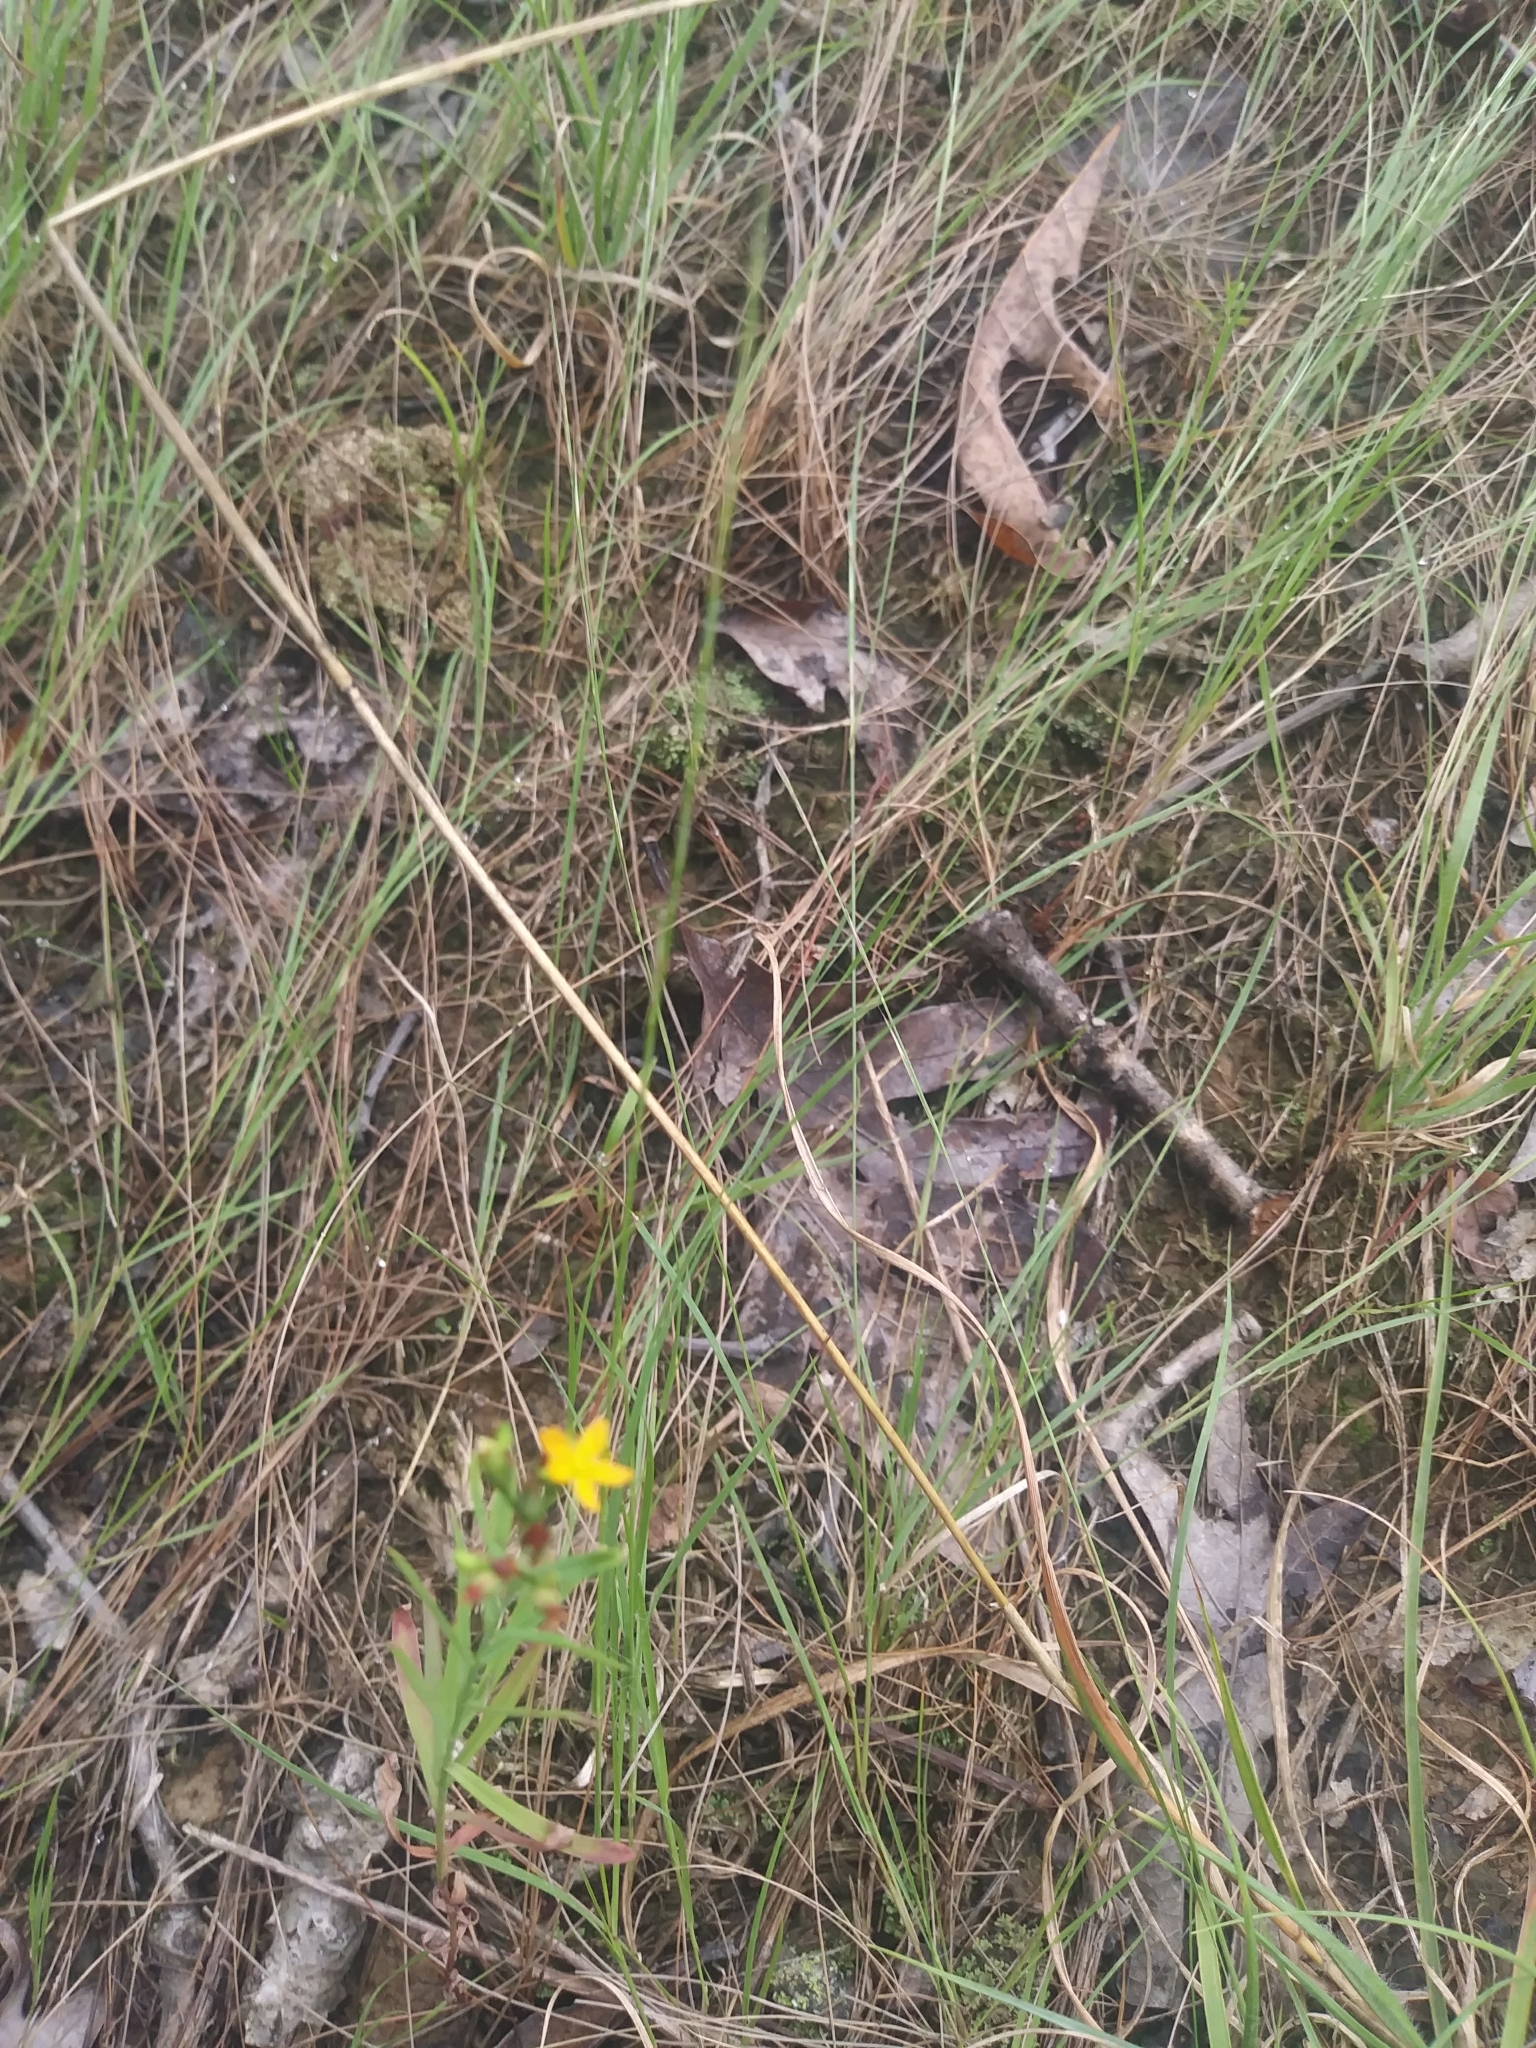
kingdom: Plantae
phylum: Tracheophyta
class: Magnoliopsida
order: Malpighiales
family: Hypericaceae
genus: Hypericum
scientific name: Hypericum canadense
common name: Irish st. john's-wort
